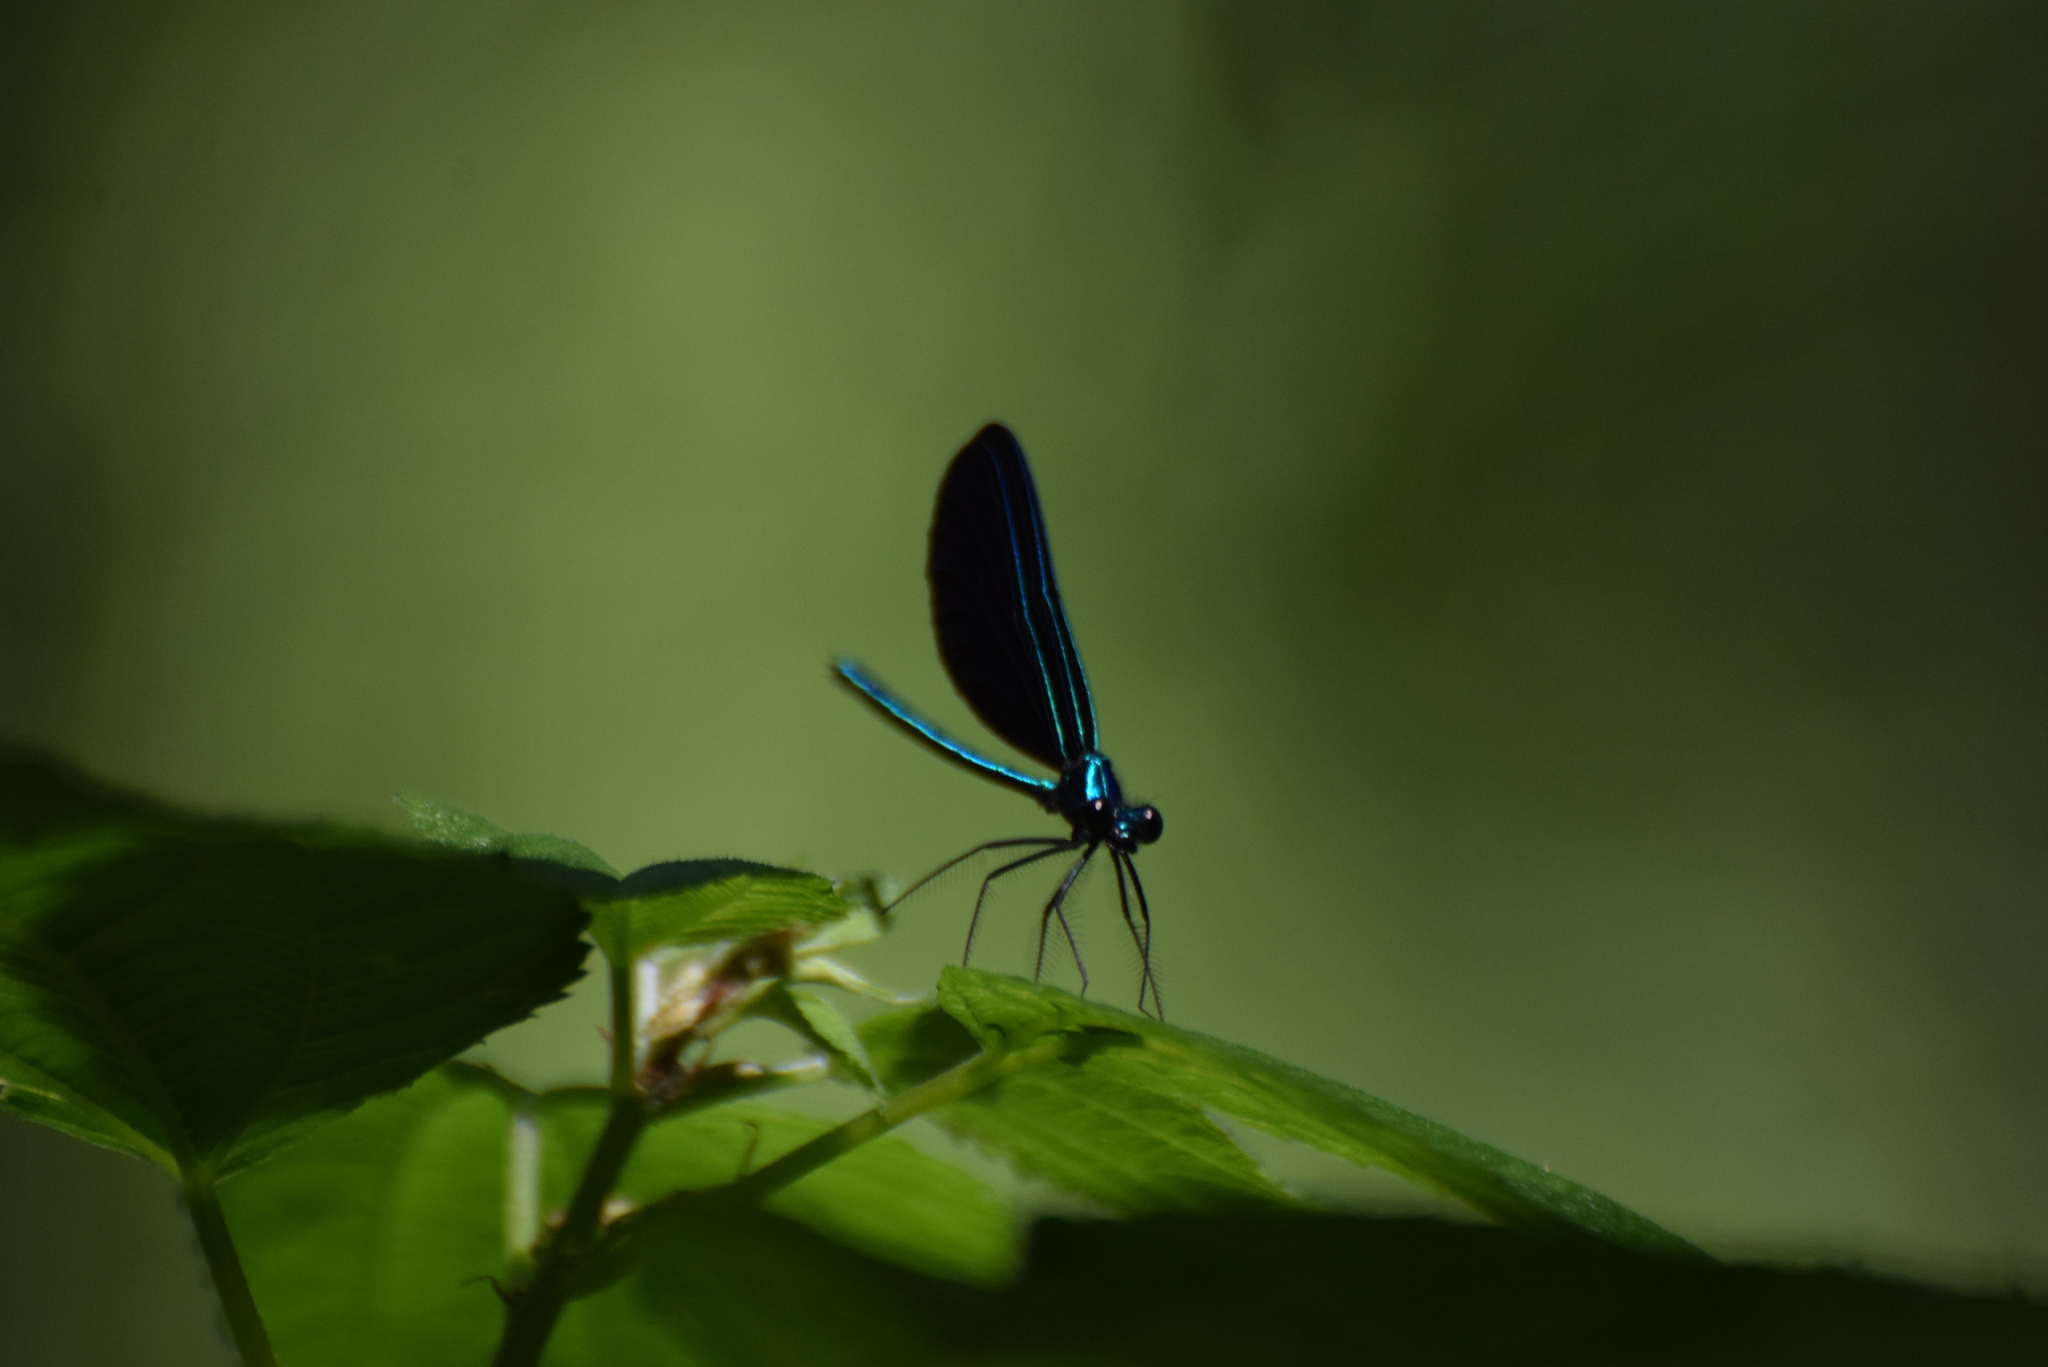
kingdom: Animalia
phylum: Arthropoda
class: Insecta
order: Odonata
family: Calopterygidae
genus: Calopteryx
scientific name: Calopteryx maculata
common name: Ebony jewelwing
